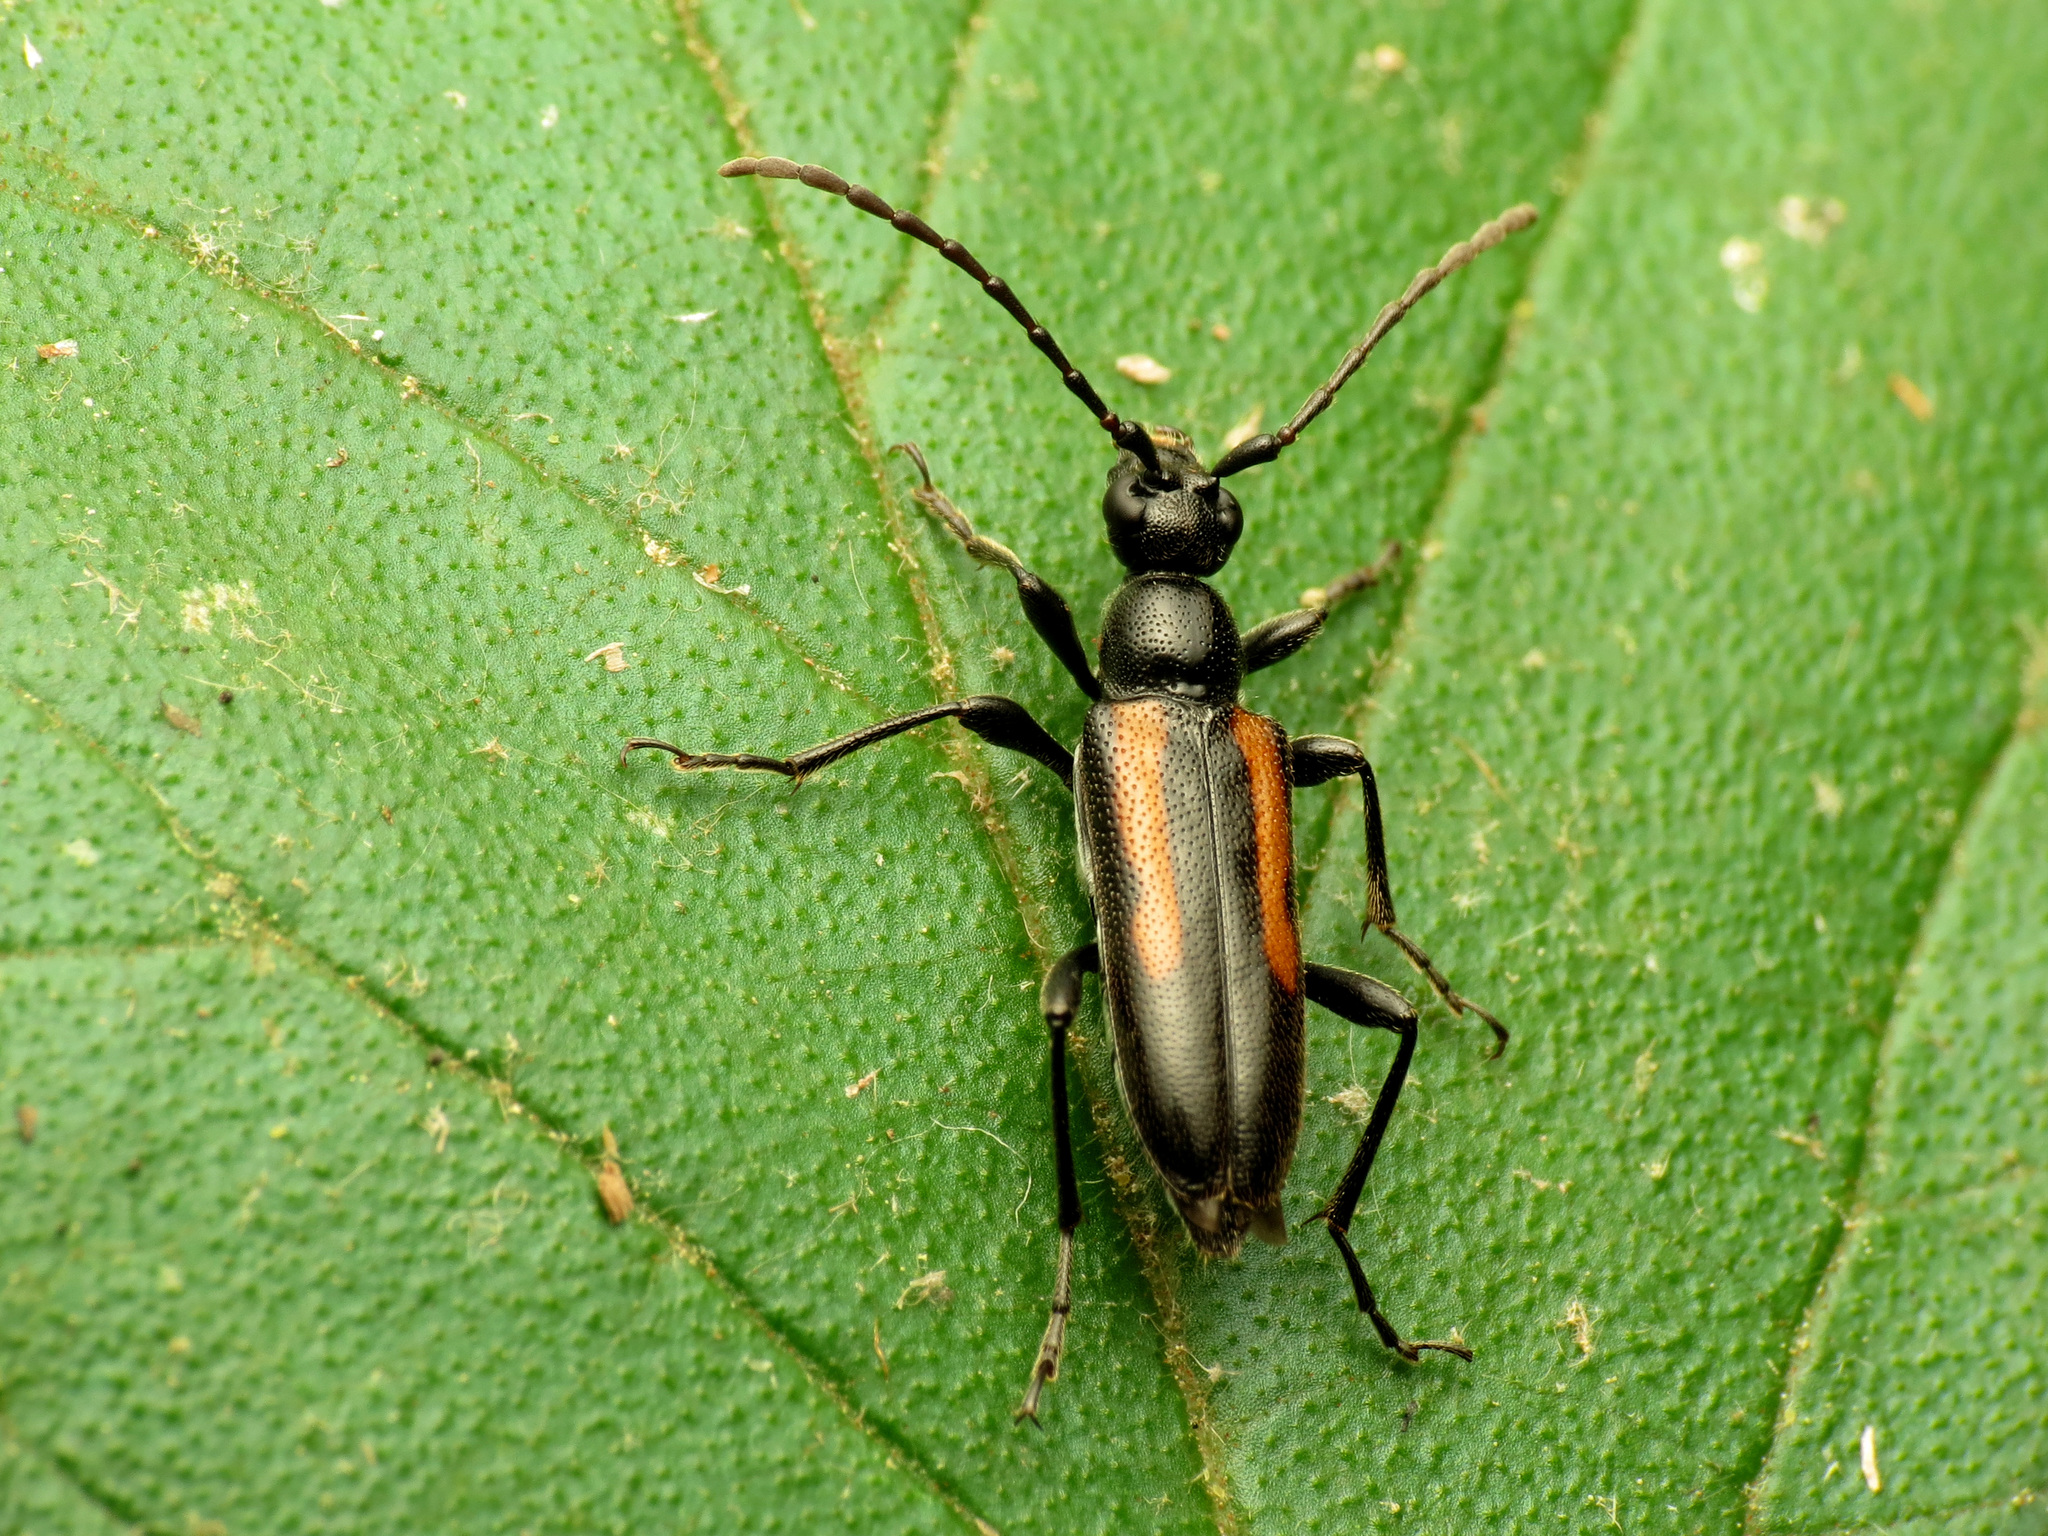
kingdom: Animalia
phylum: Arthropoda
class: Insecta
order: Coleoptera
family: Cerambycidae
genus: Strangalepta
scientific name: Strangalepta abbreviata
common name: Strangalepta flower longhorn beetle
